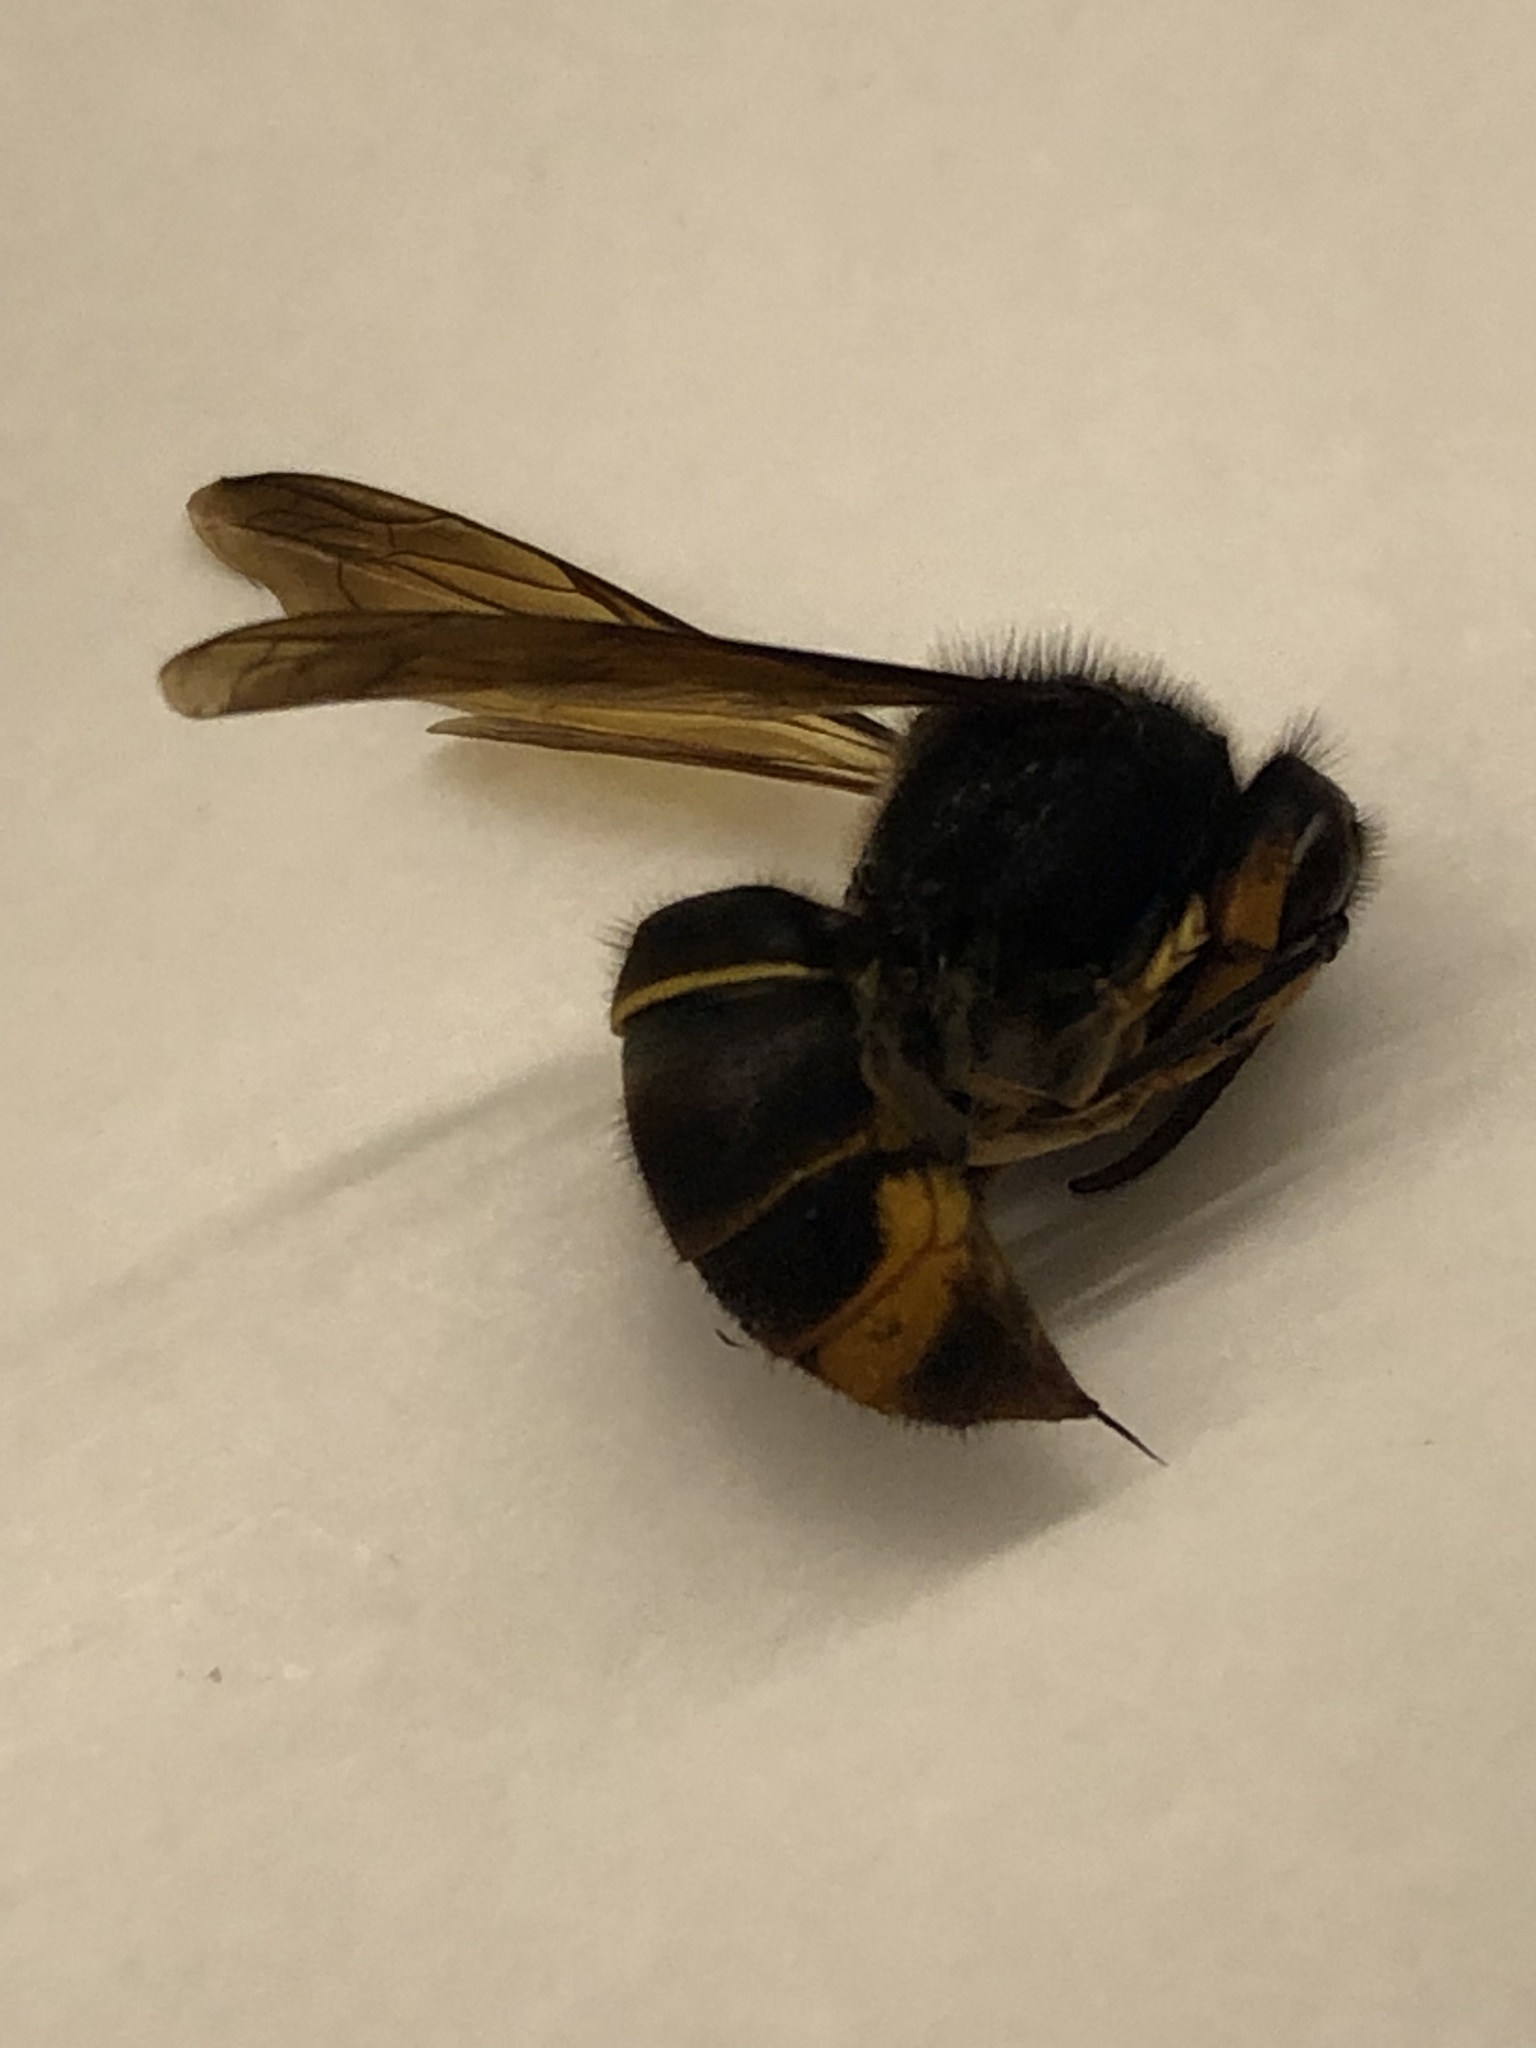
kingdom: Animalia
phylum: Arthropoda
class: Insecta
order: Hymenoptera
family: Vespidae
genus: Vespa
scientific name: Vespa velutina
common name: Asian hornet
